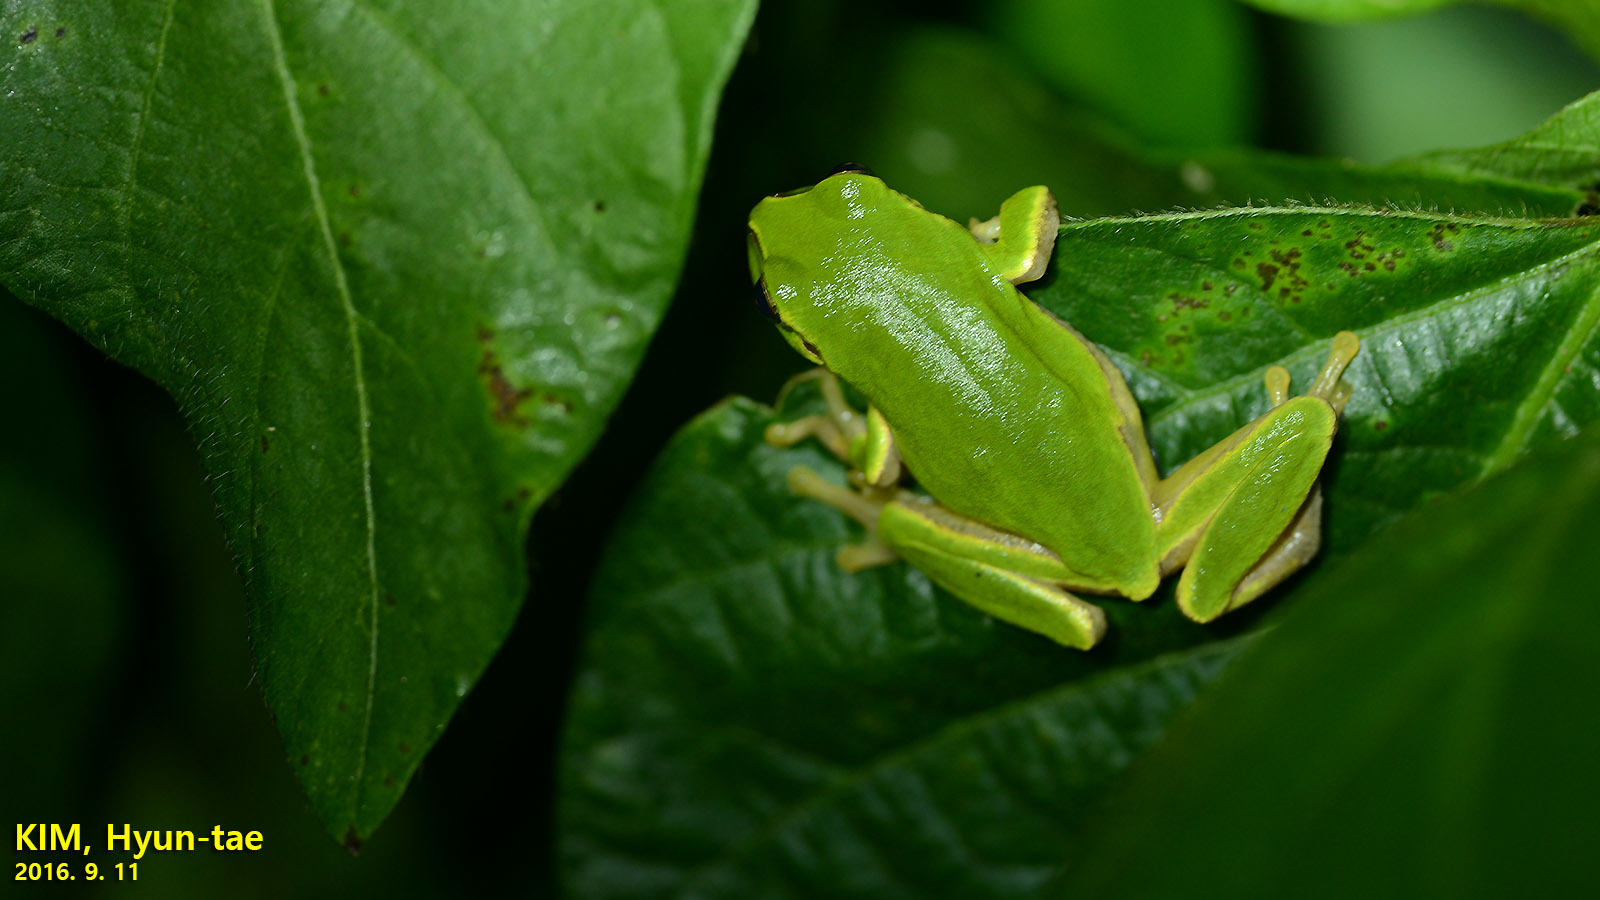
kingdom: Animalia
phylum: Chordata
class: Amphibia
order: Anura
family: Hylidae
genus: Dryophytes
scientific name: Dryophytes japonicus
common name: Japanese treefrog
